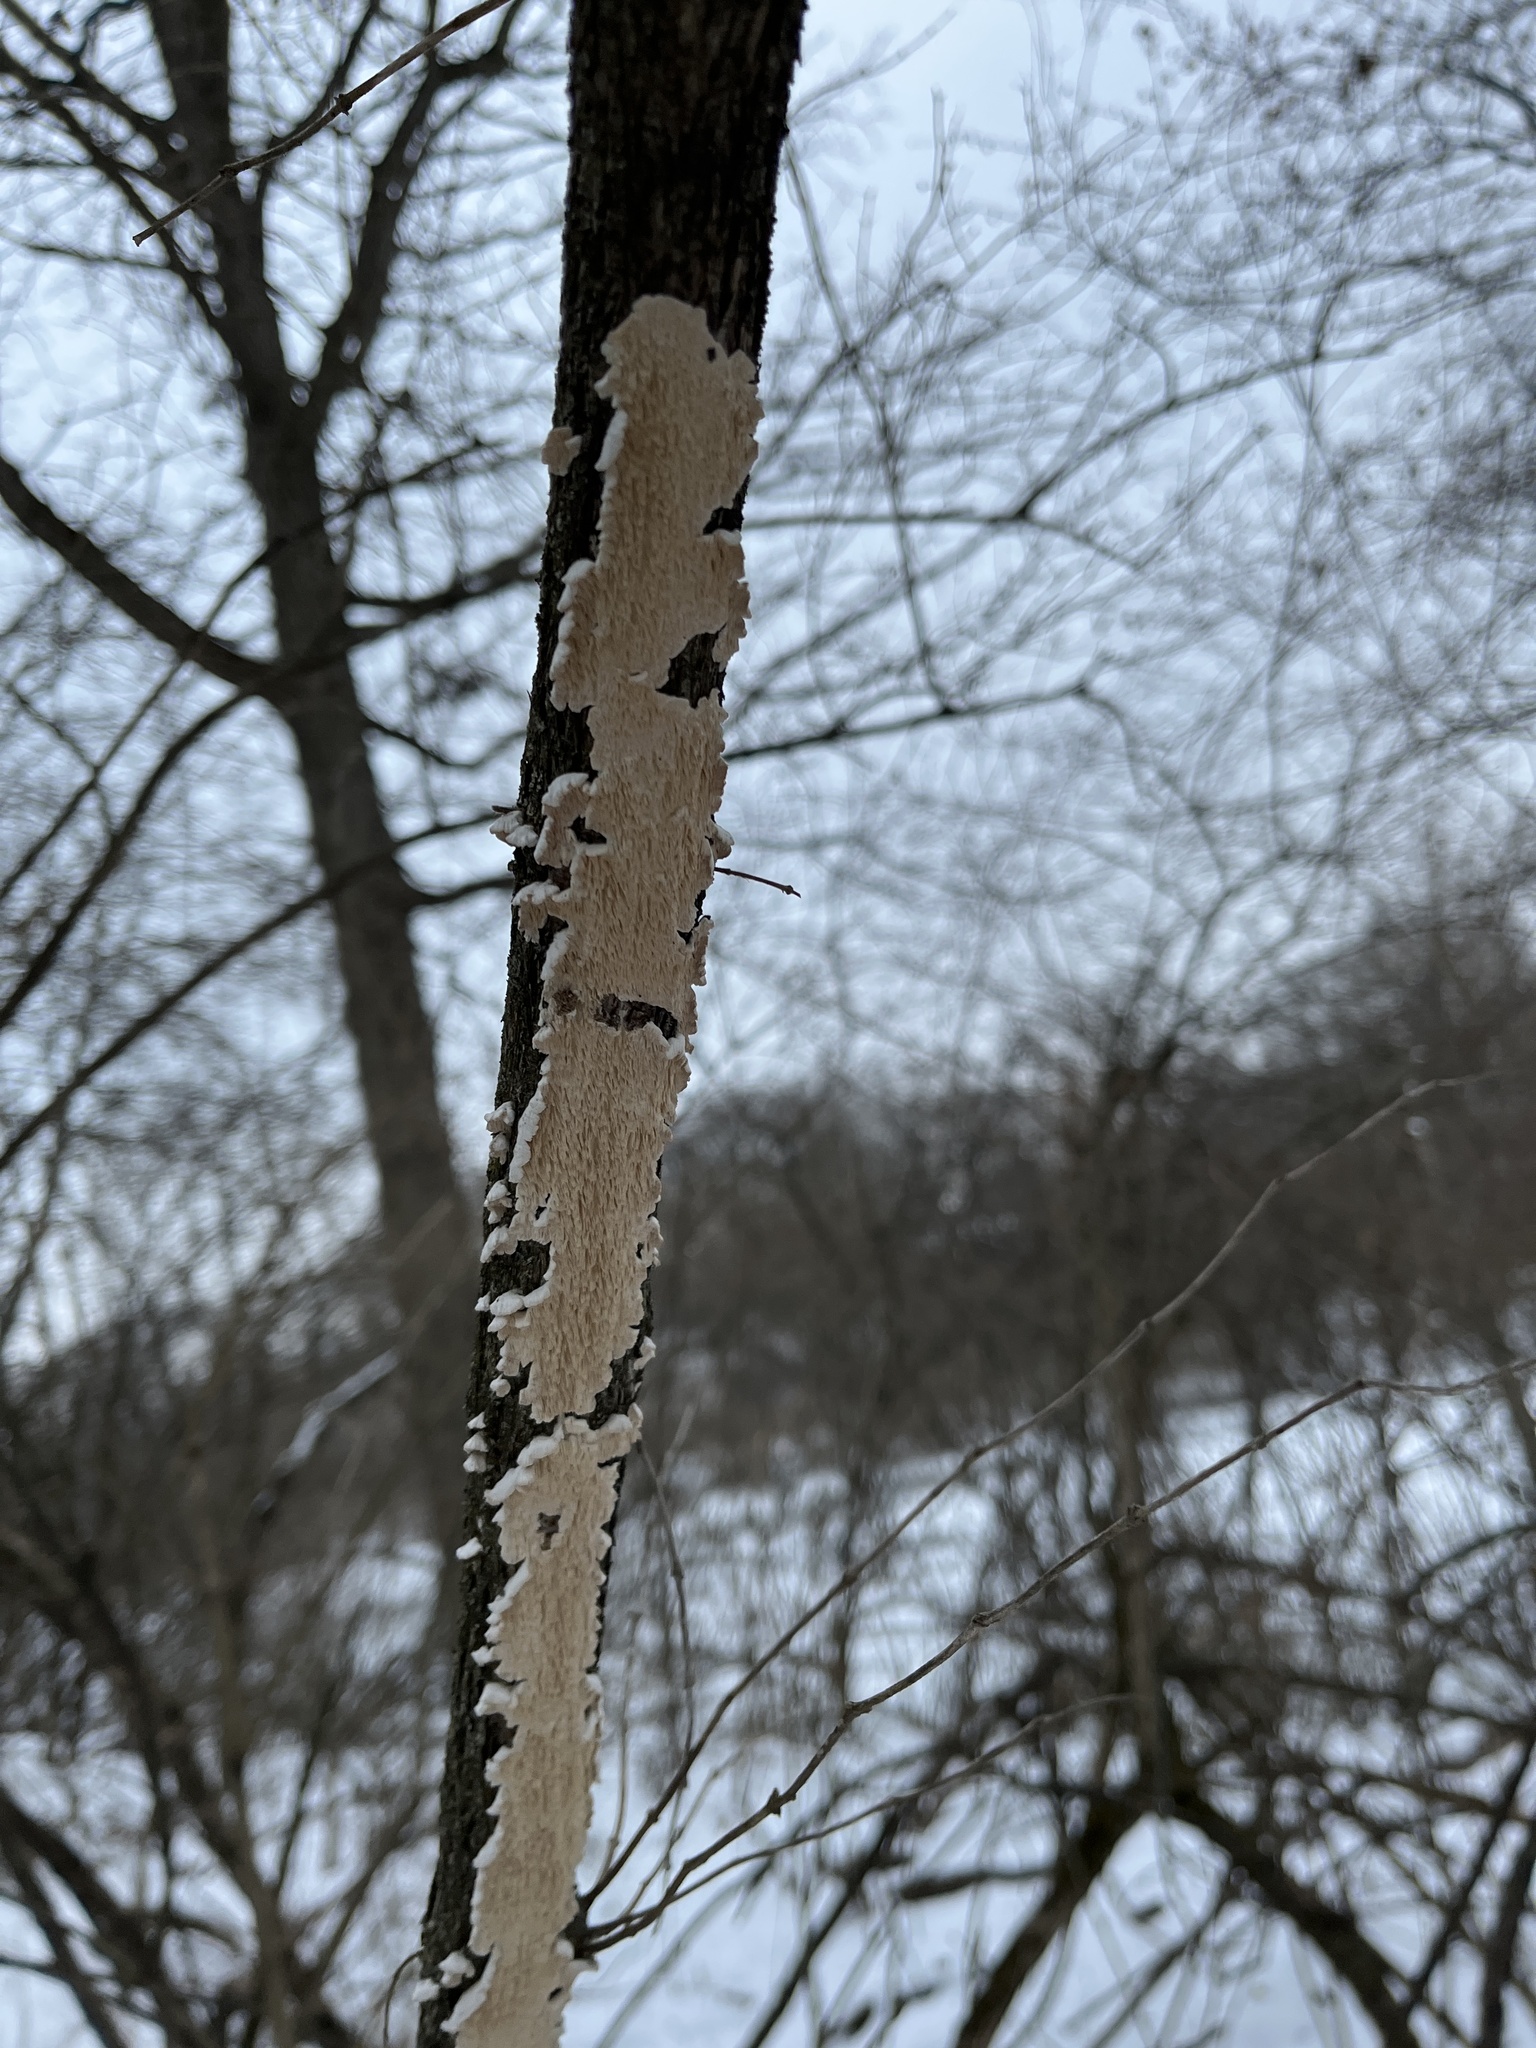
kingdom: Fungi
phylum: Basidiomycota
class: Agaricomycetes
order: Polyporales
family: Irpicaceae
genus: Irpex
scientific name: Irpex lacteus
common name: Milk-white toothed polypore
